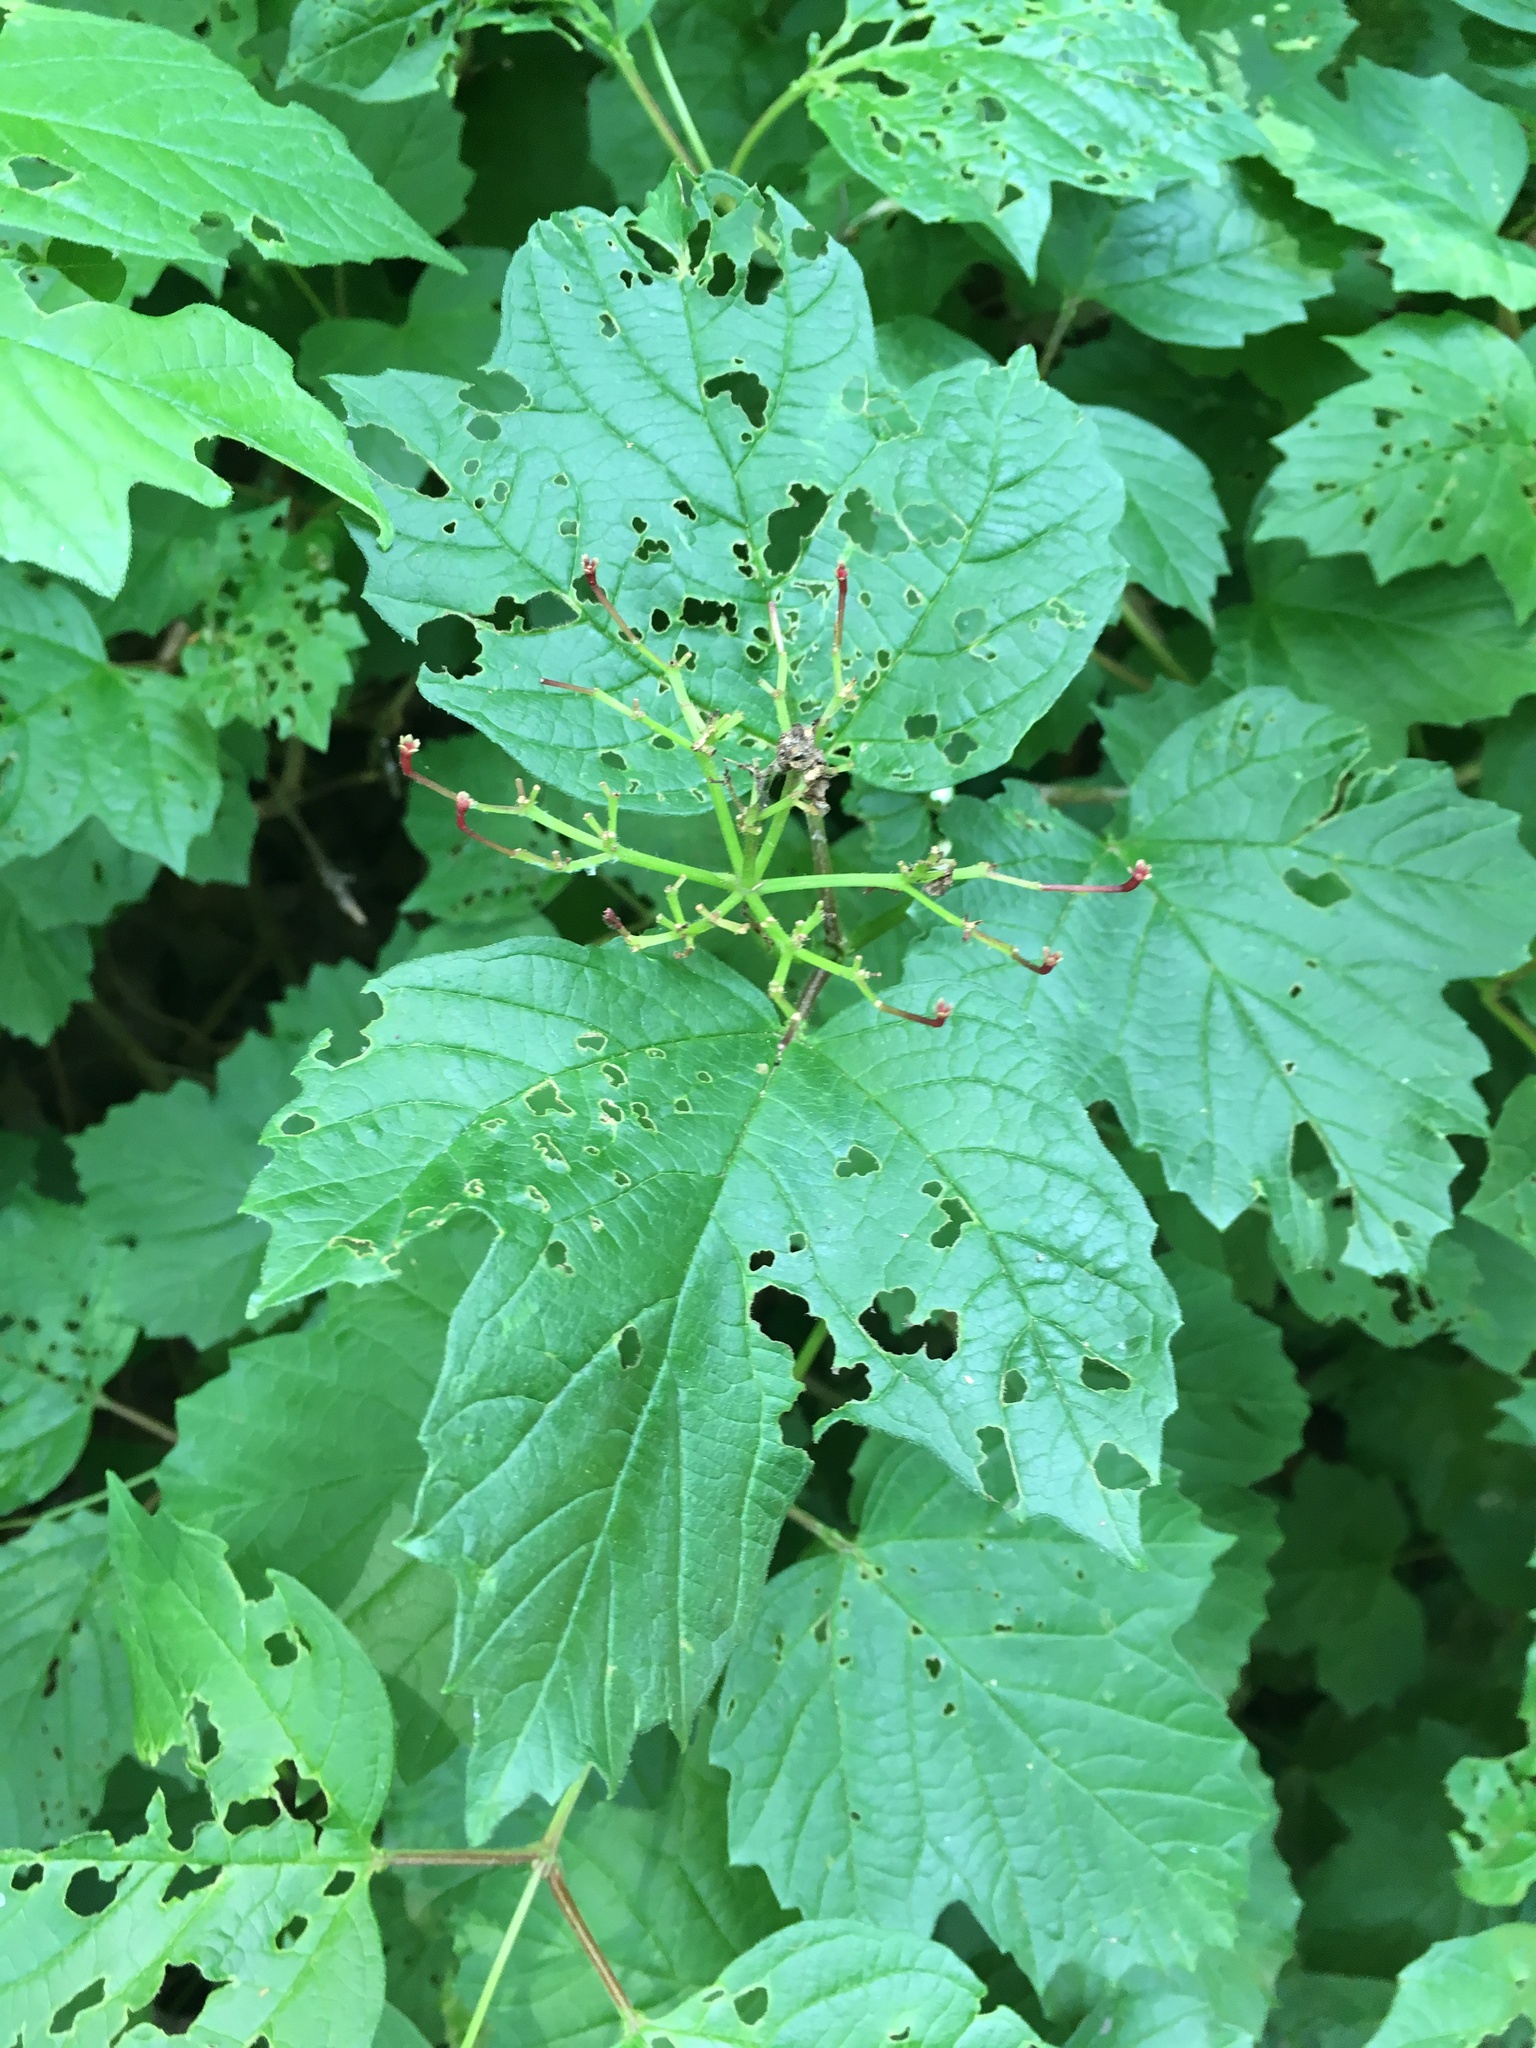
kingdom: Plantae
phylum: Tracheophyta
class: Magnoliopsida
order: Dipsacales
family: Viburnaceae
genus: Viburnum
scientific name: Viburnum opulus
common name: Guelder-rose
